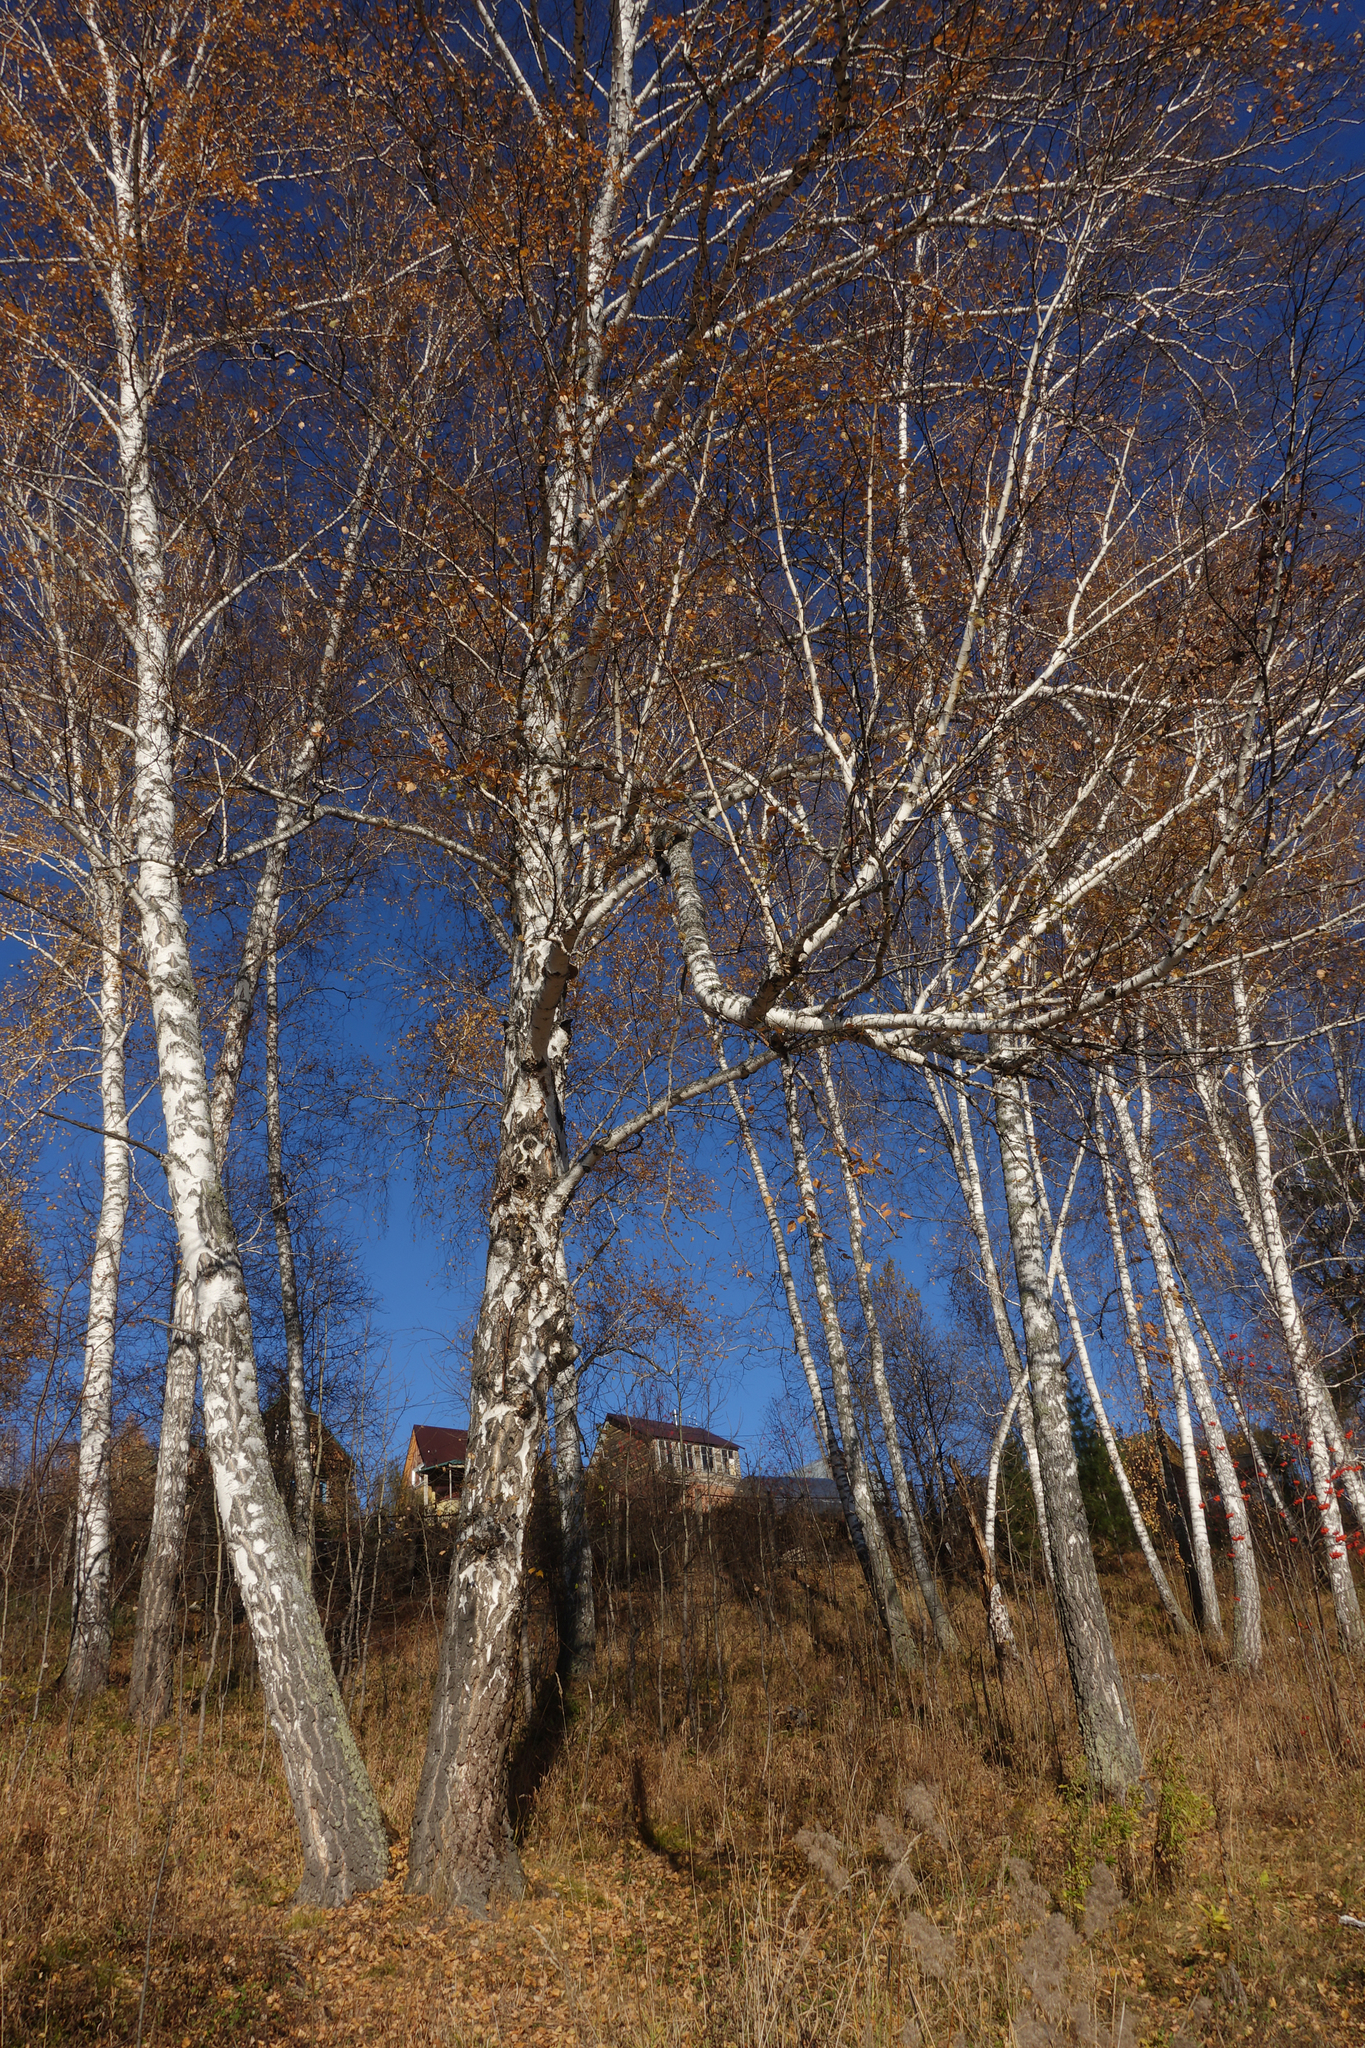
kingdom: Plantae
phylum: Tracheophyta
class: Magnoliopsida
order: Fagales
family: Betulaceae
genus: Betula
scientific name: Betula pendula
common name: Silver birch
